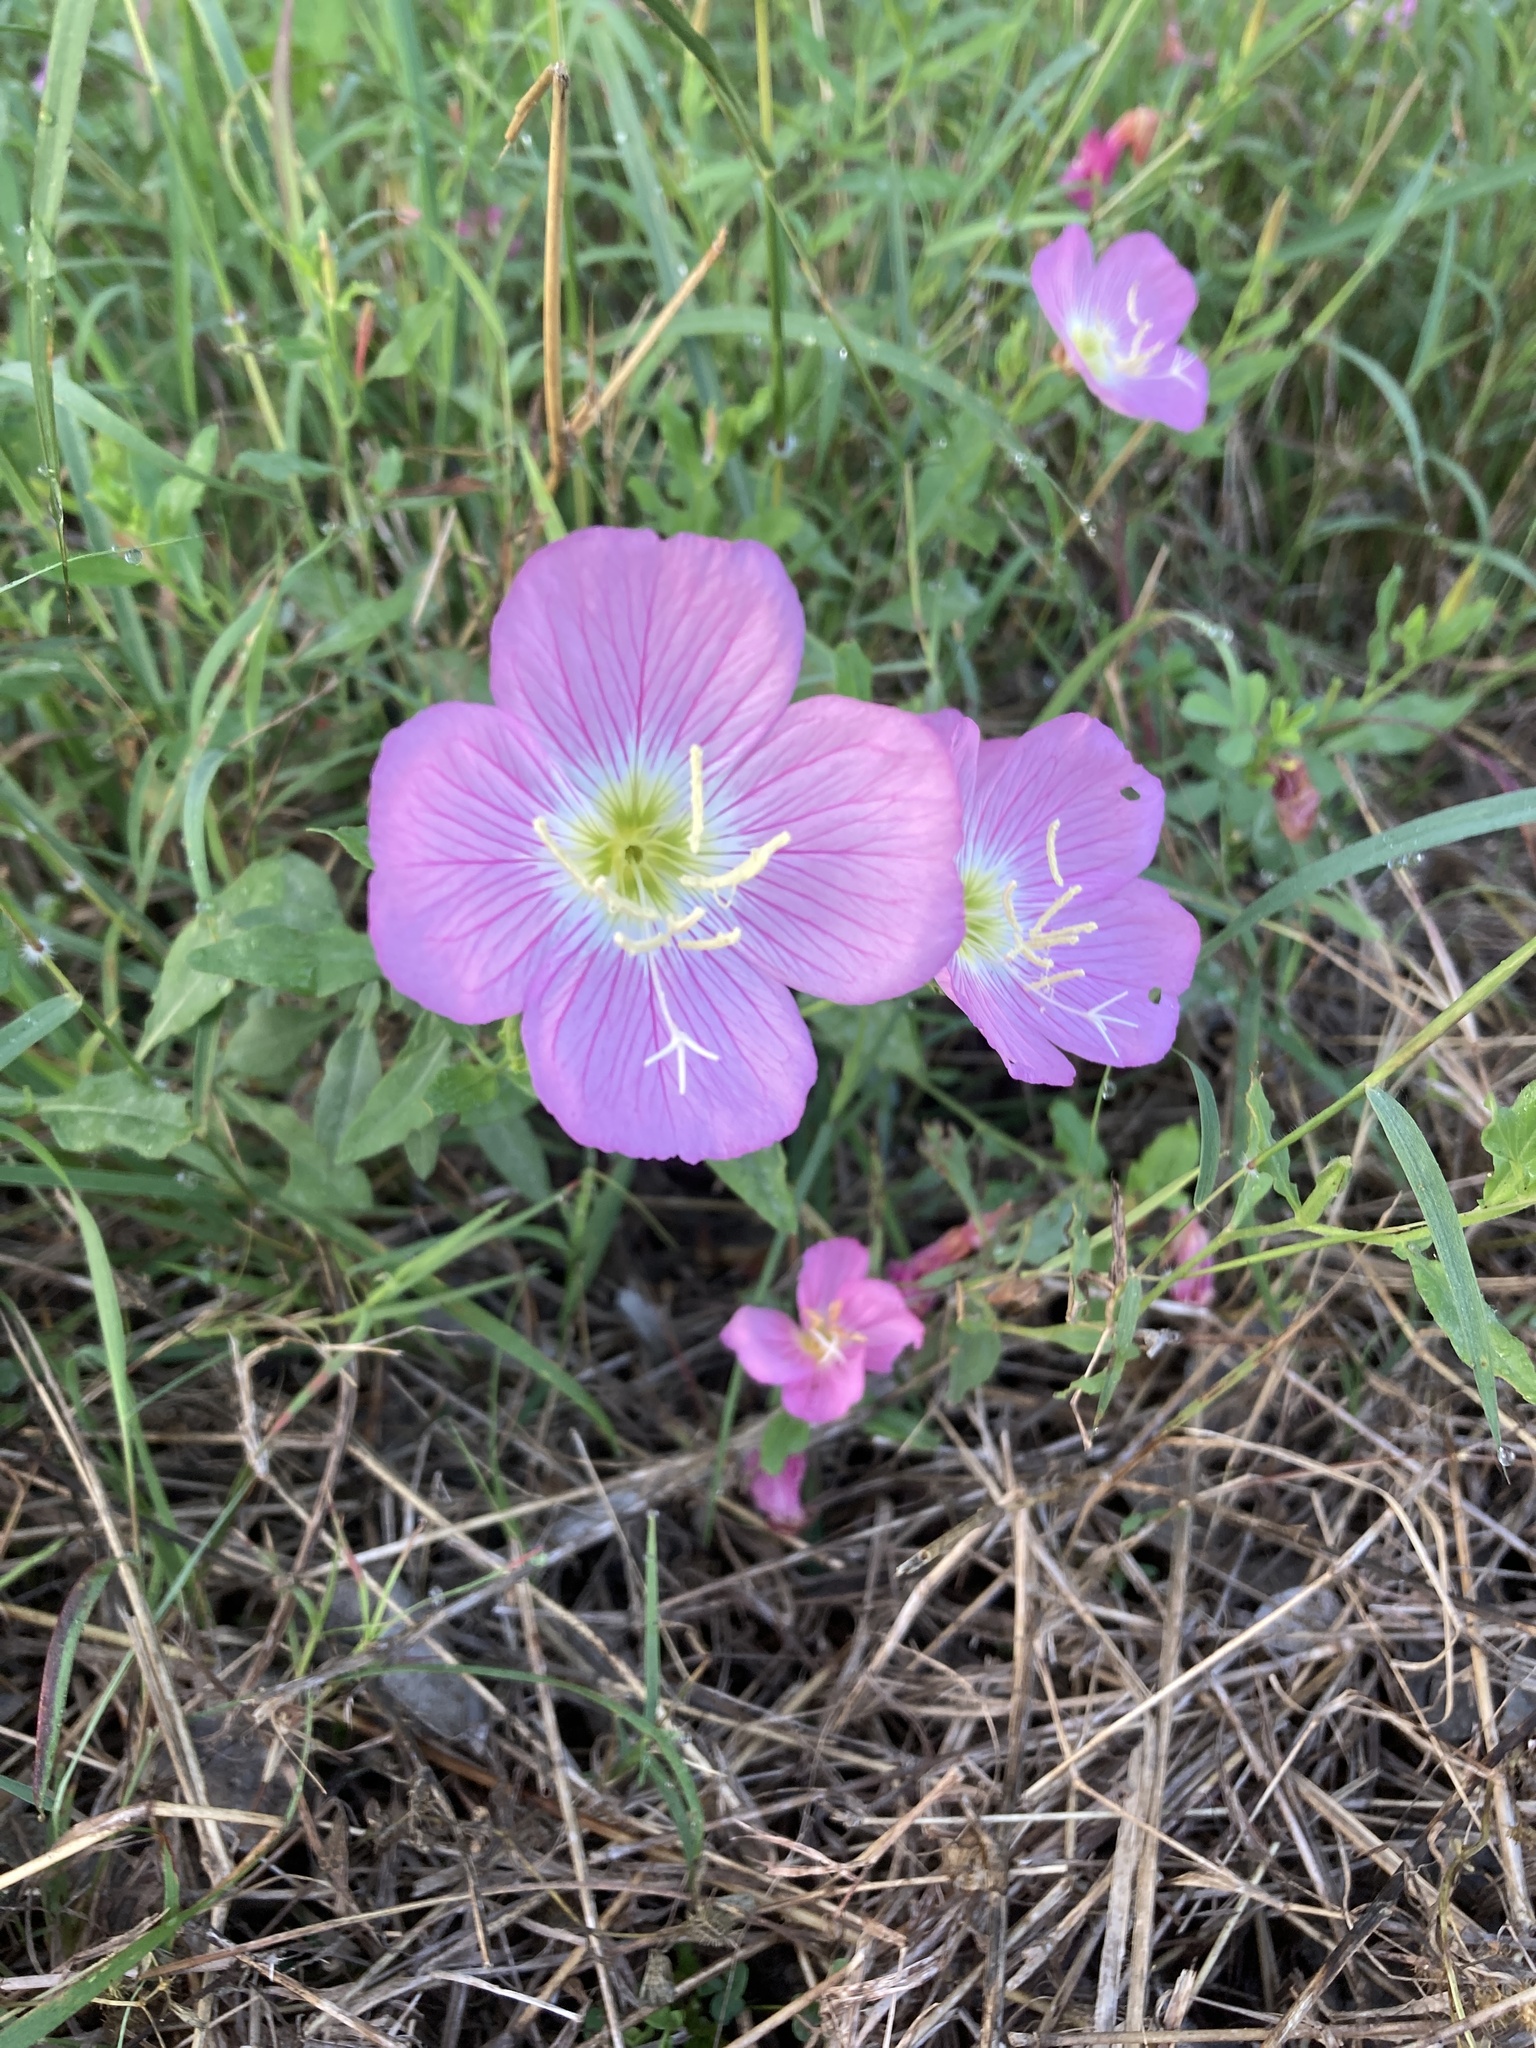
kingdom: Plantae
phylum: Tracheophyta
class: Magnoliopsida
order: Myrtales
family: Onagraceae
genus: Oenothera
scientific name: Oenothera speciosa
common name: White evening-primrose
